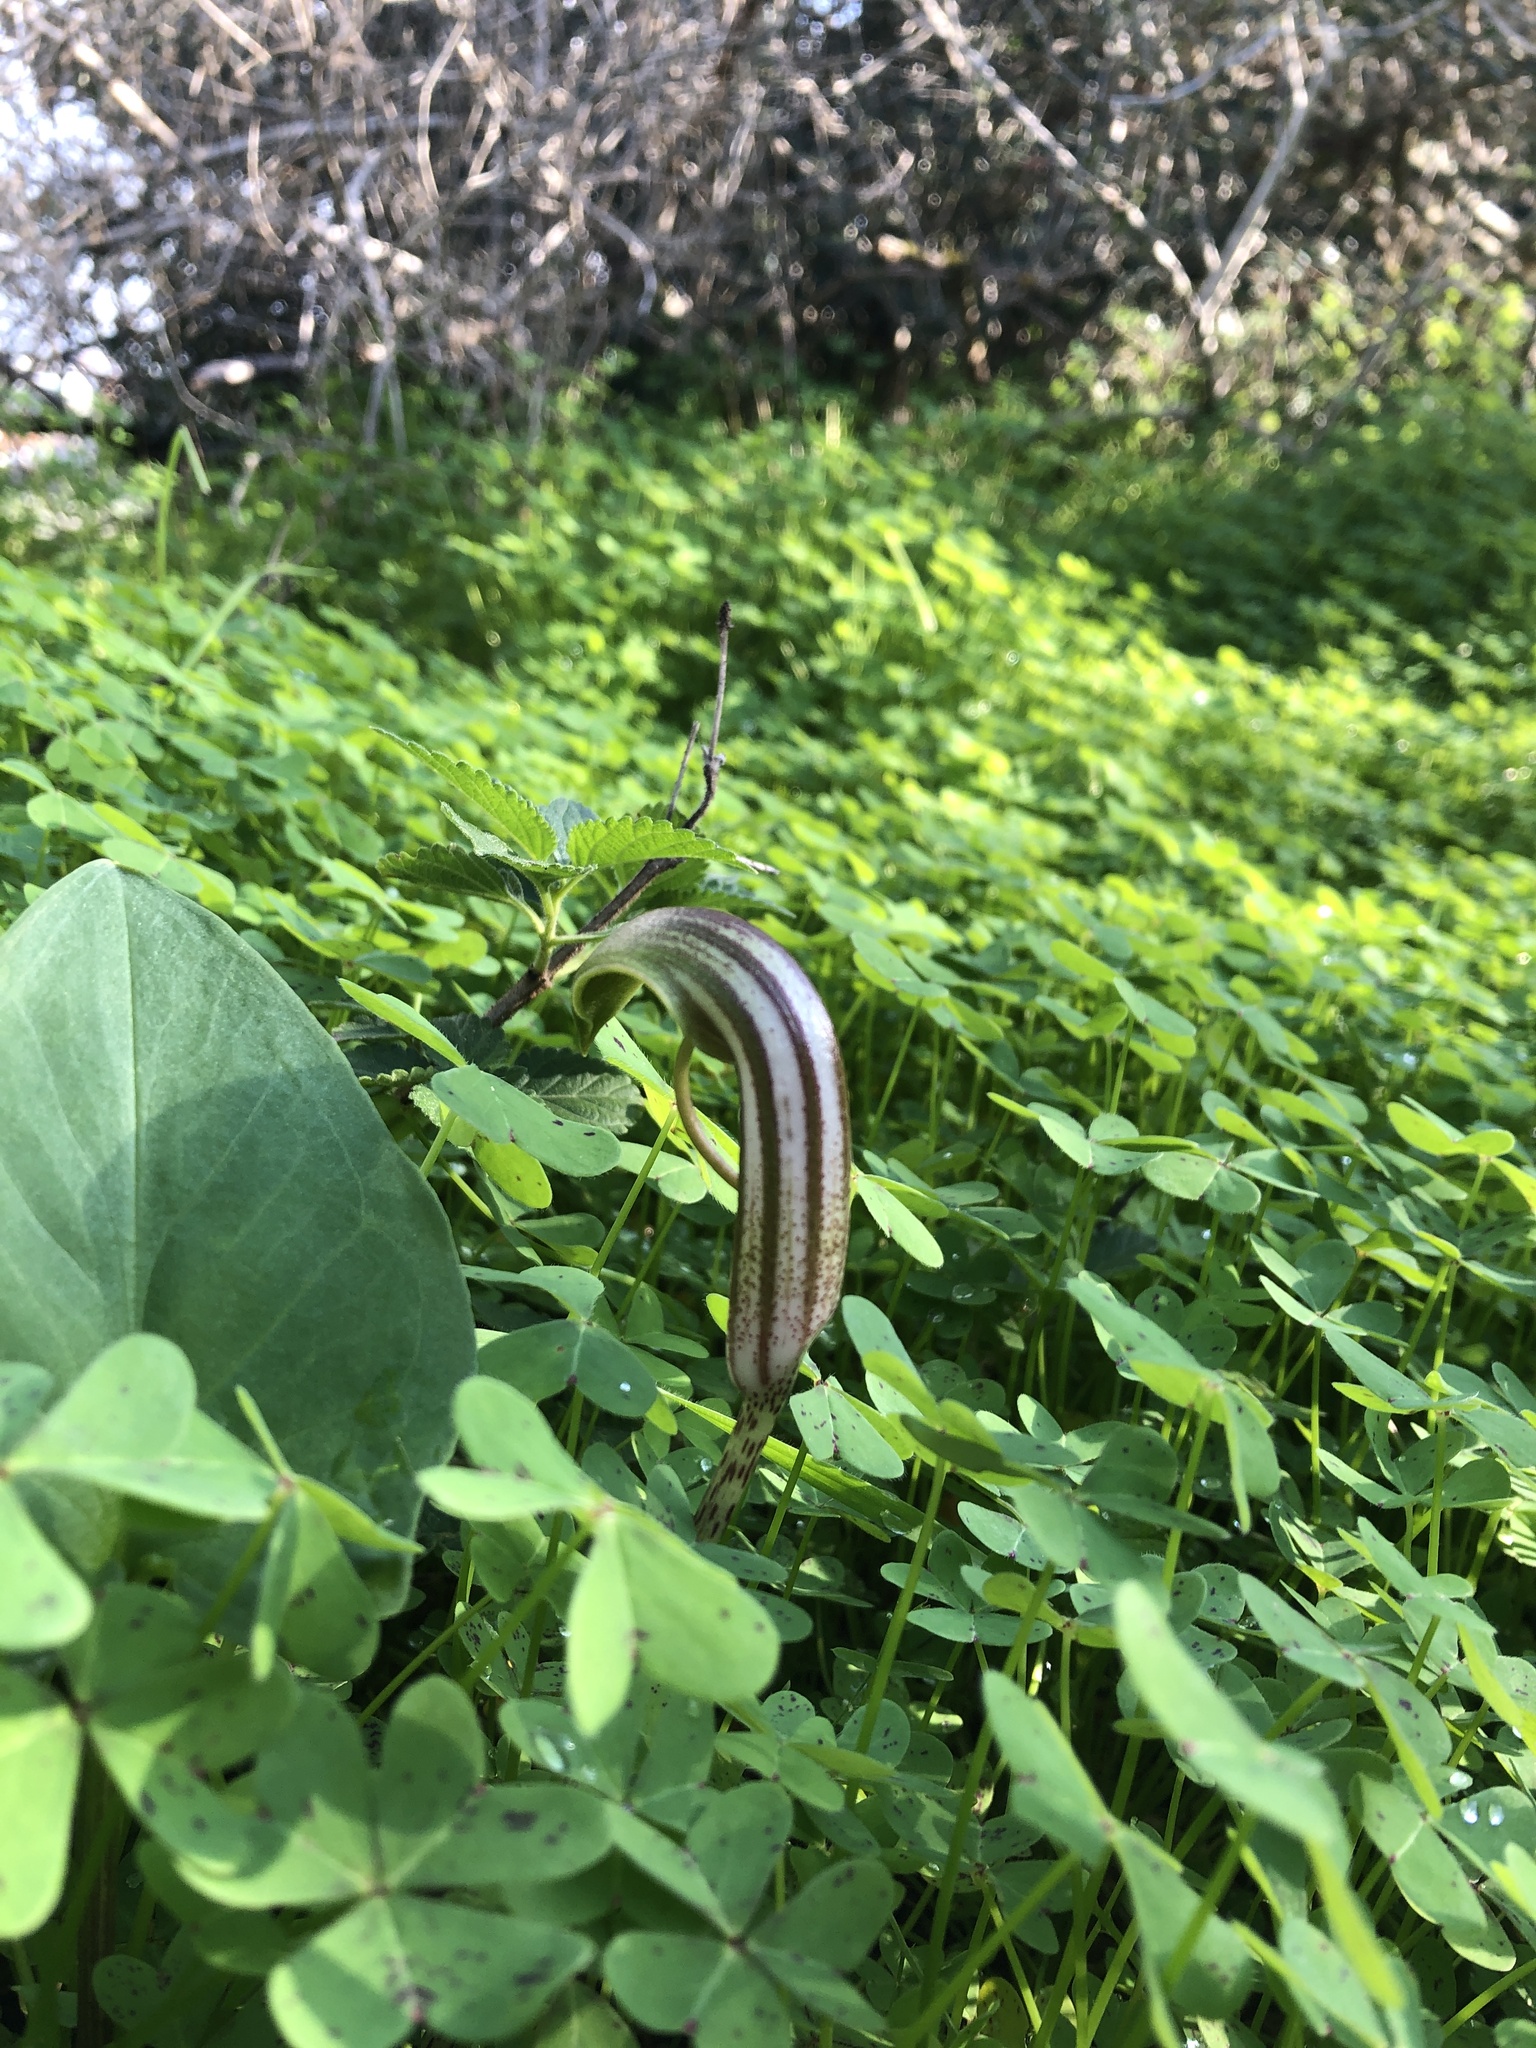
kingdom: Plantae
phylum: Tracheophyta
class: Liliopsida
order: Alismatales
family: Araceae
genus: Arisarum
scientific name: Arisarum vulgare
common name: Common arisarum
